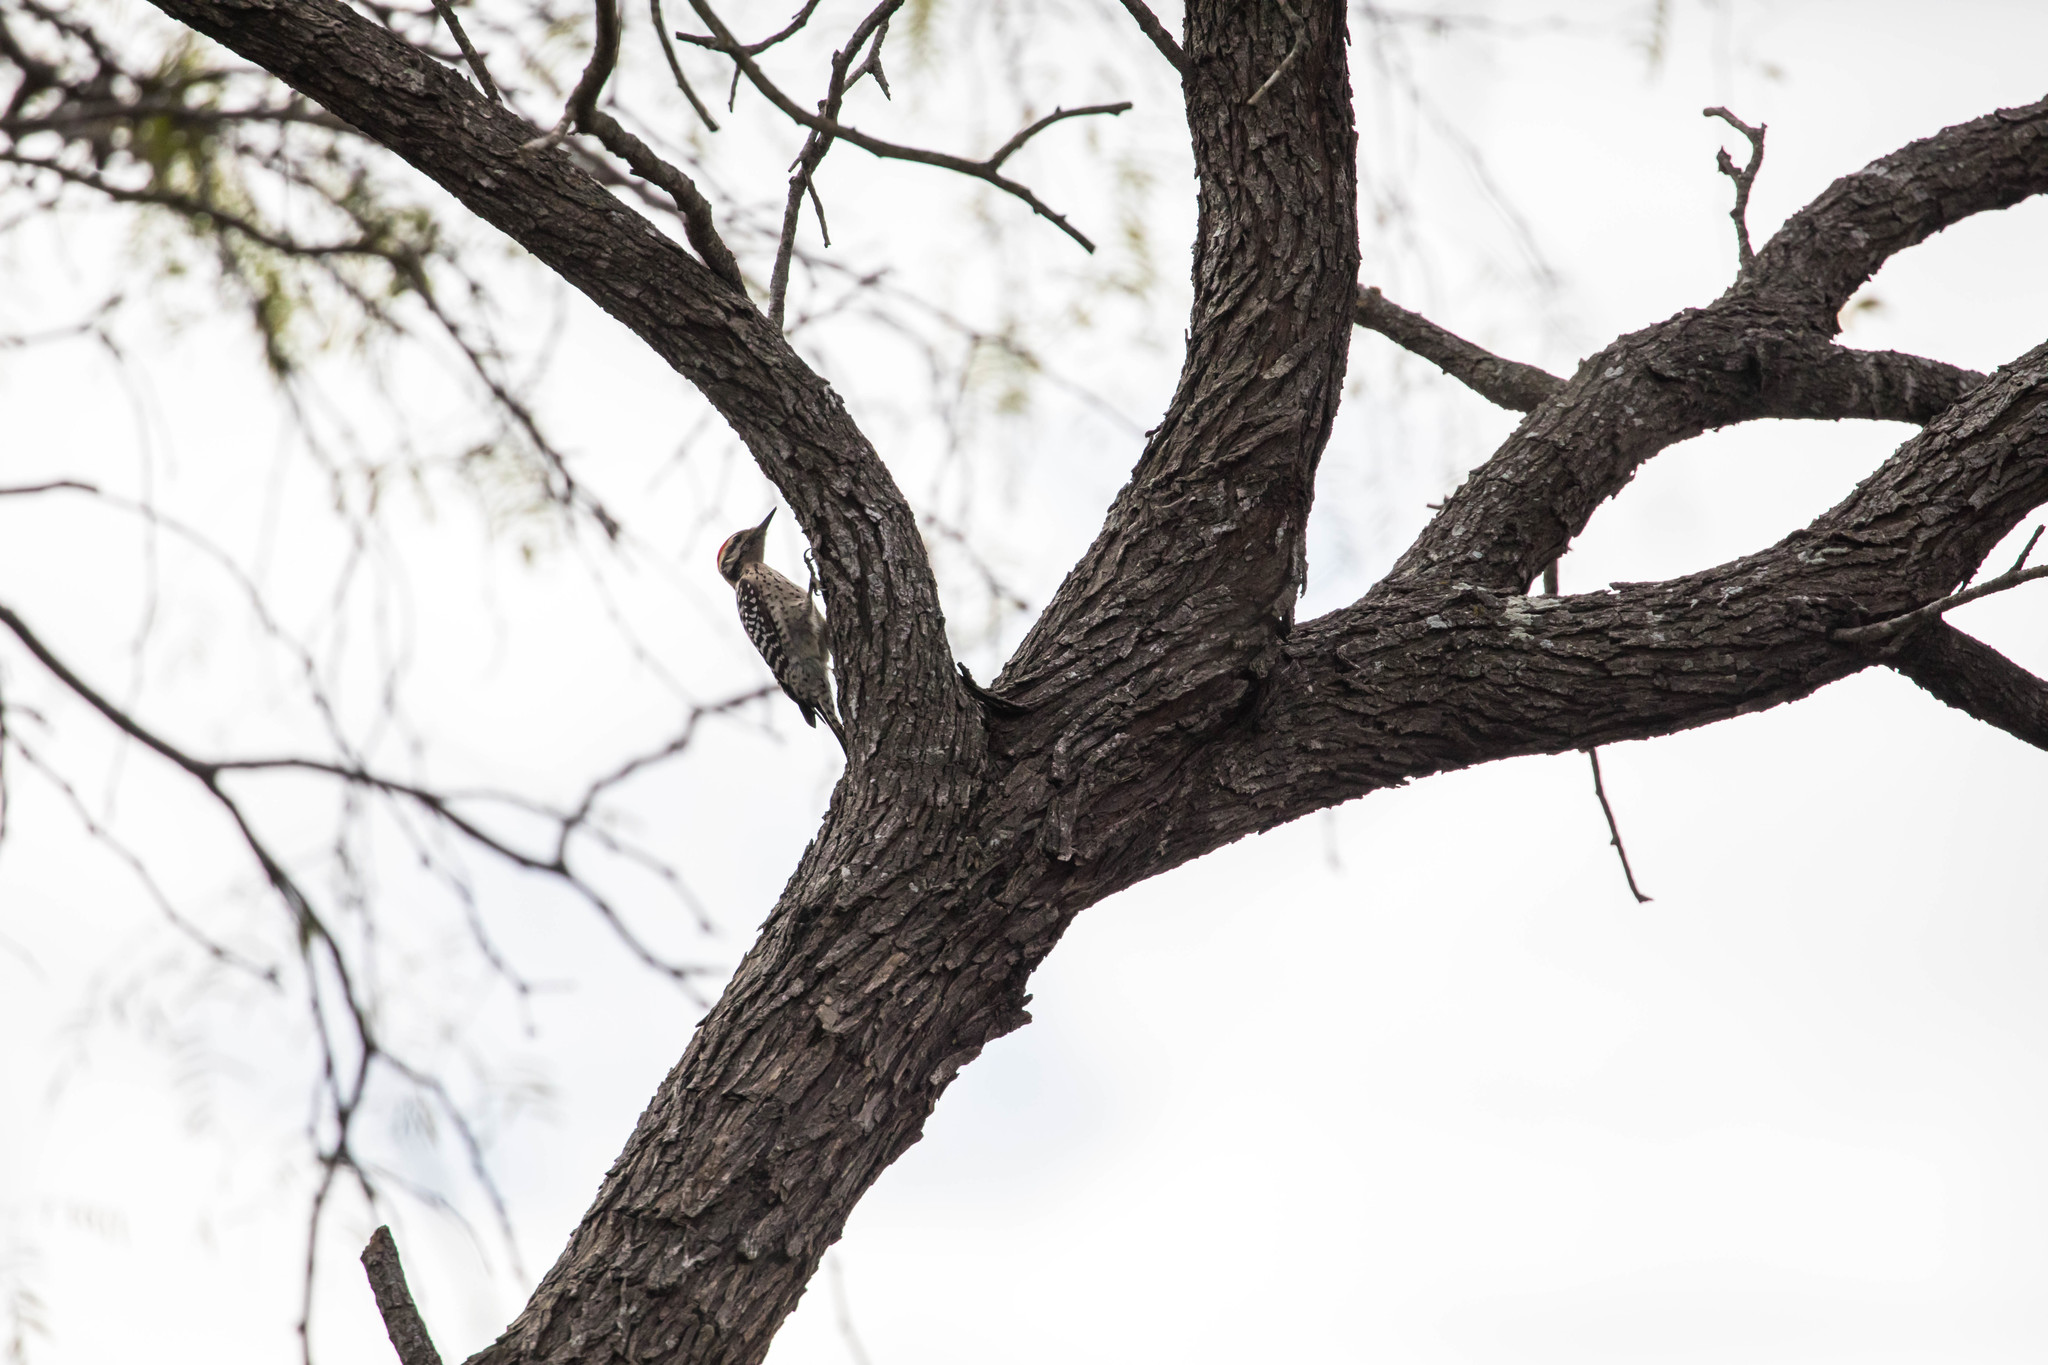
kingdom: Animalia
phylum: Chordata
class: Aves
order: Piciformes
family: Picidae
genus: Dryobates
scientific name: Dryobates scalaris
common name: Ladder-backed woodpecker
